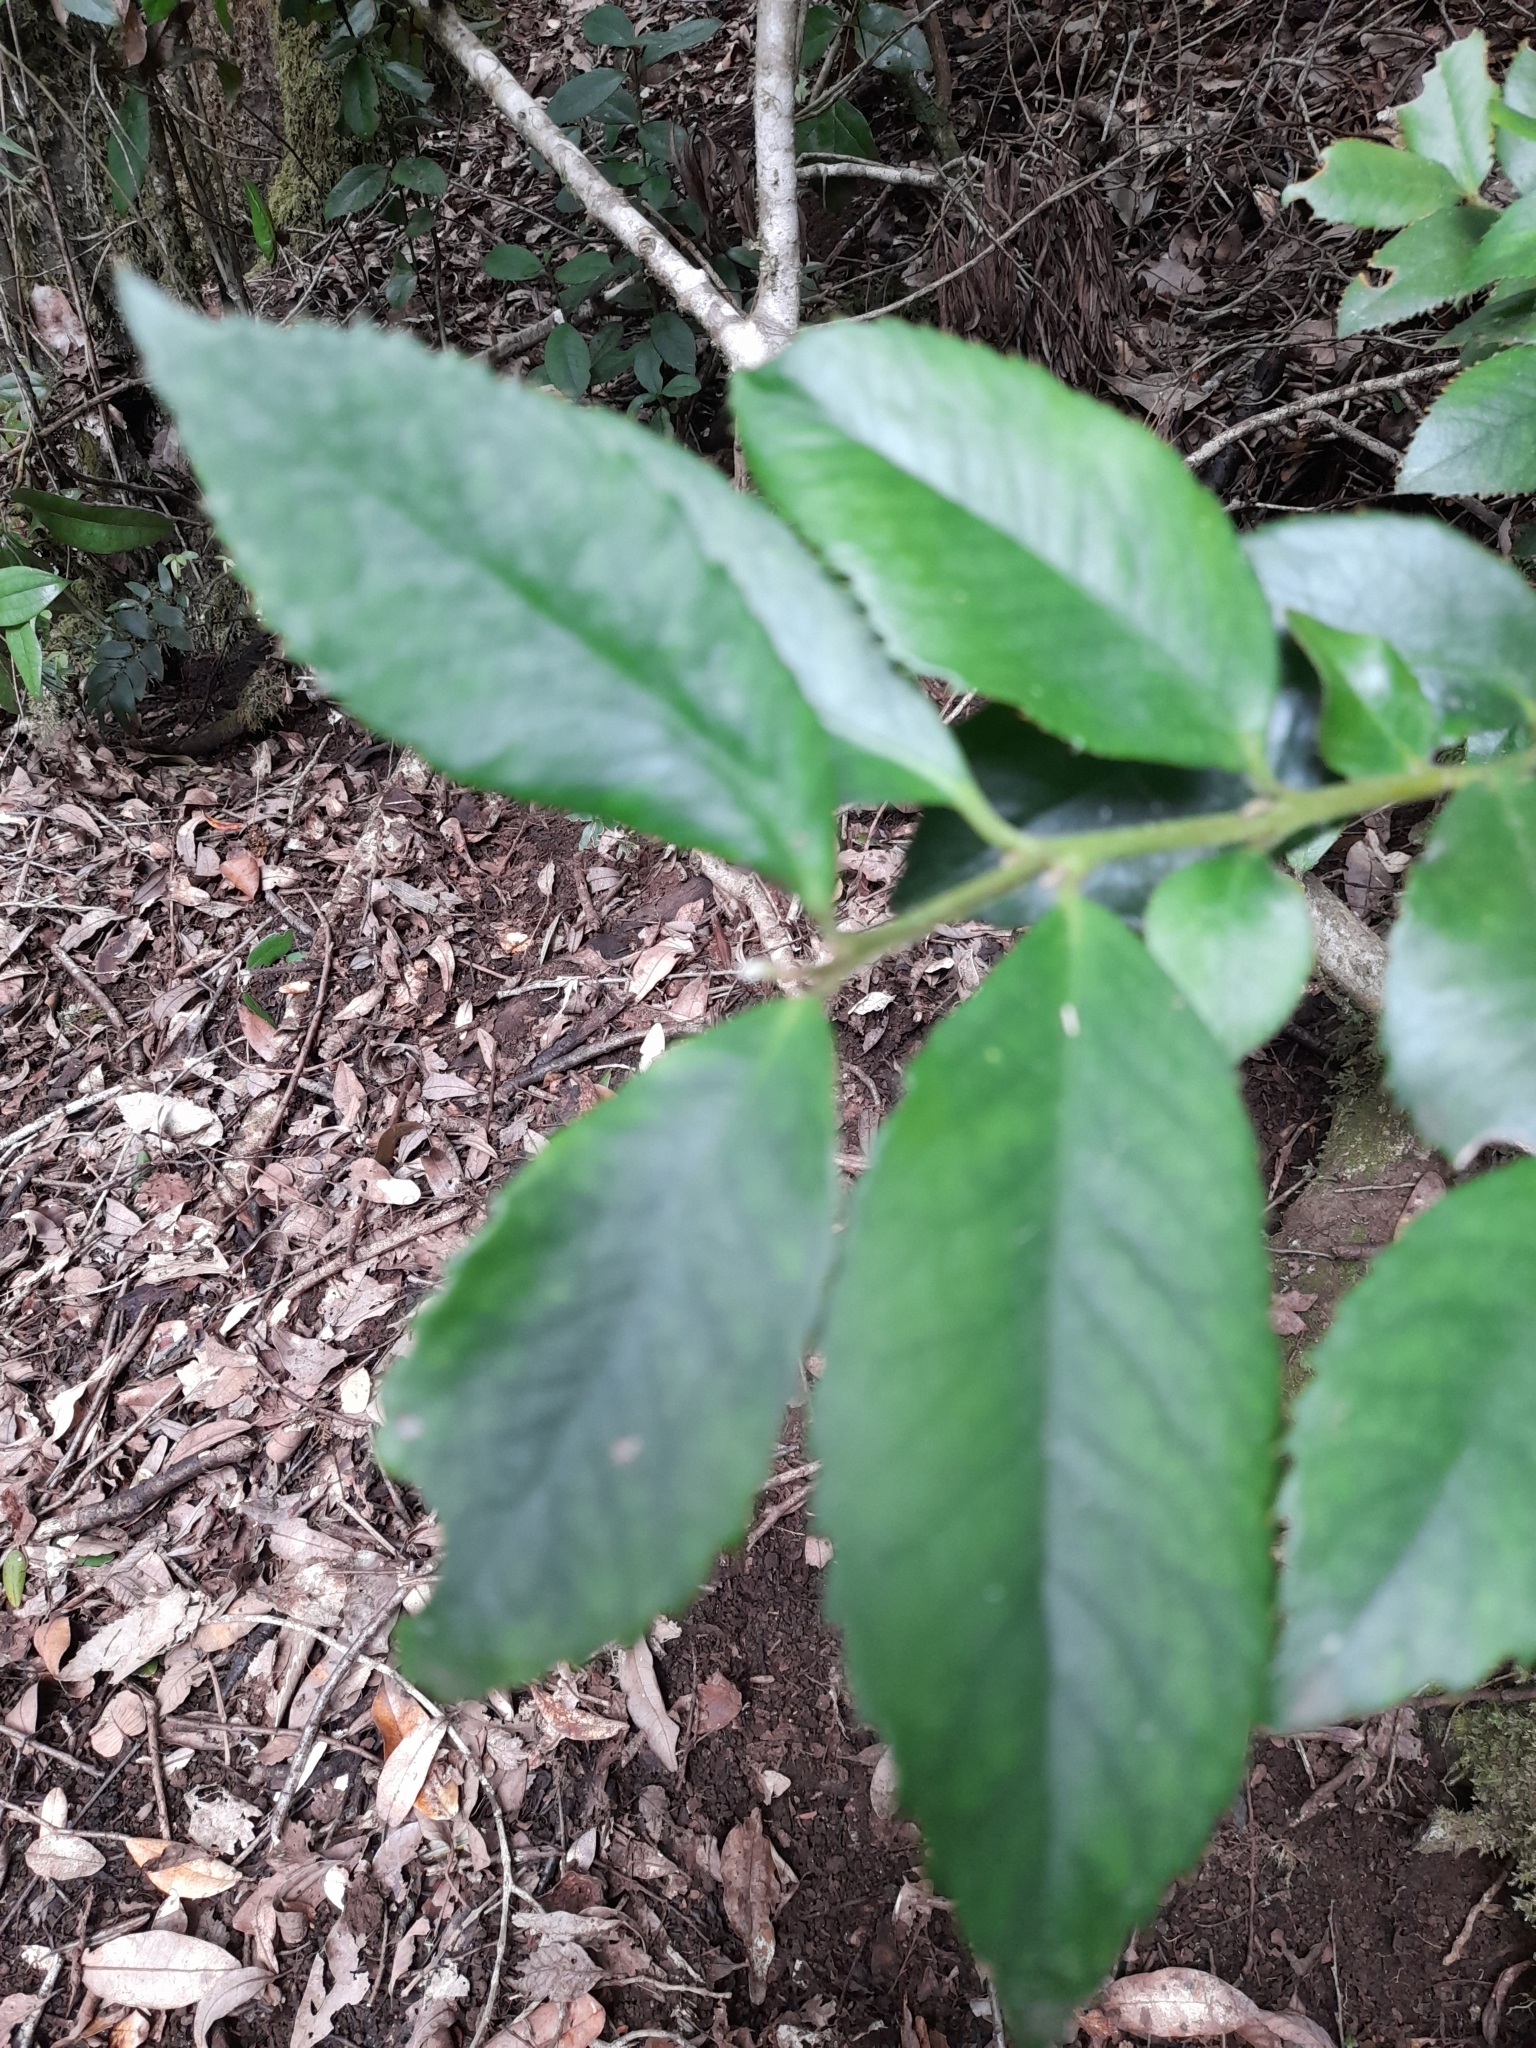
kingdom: Plantae
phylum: Tracheophyta
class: Magnoliopsida
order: Laurales
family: Atherospermataceae
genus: Laureliopsis
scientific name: Laureliopsis philippiana
